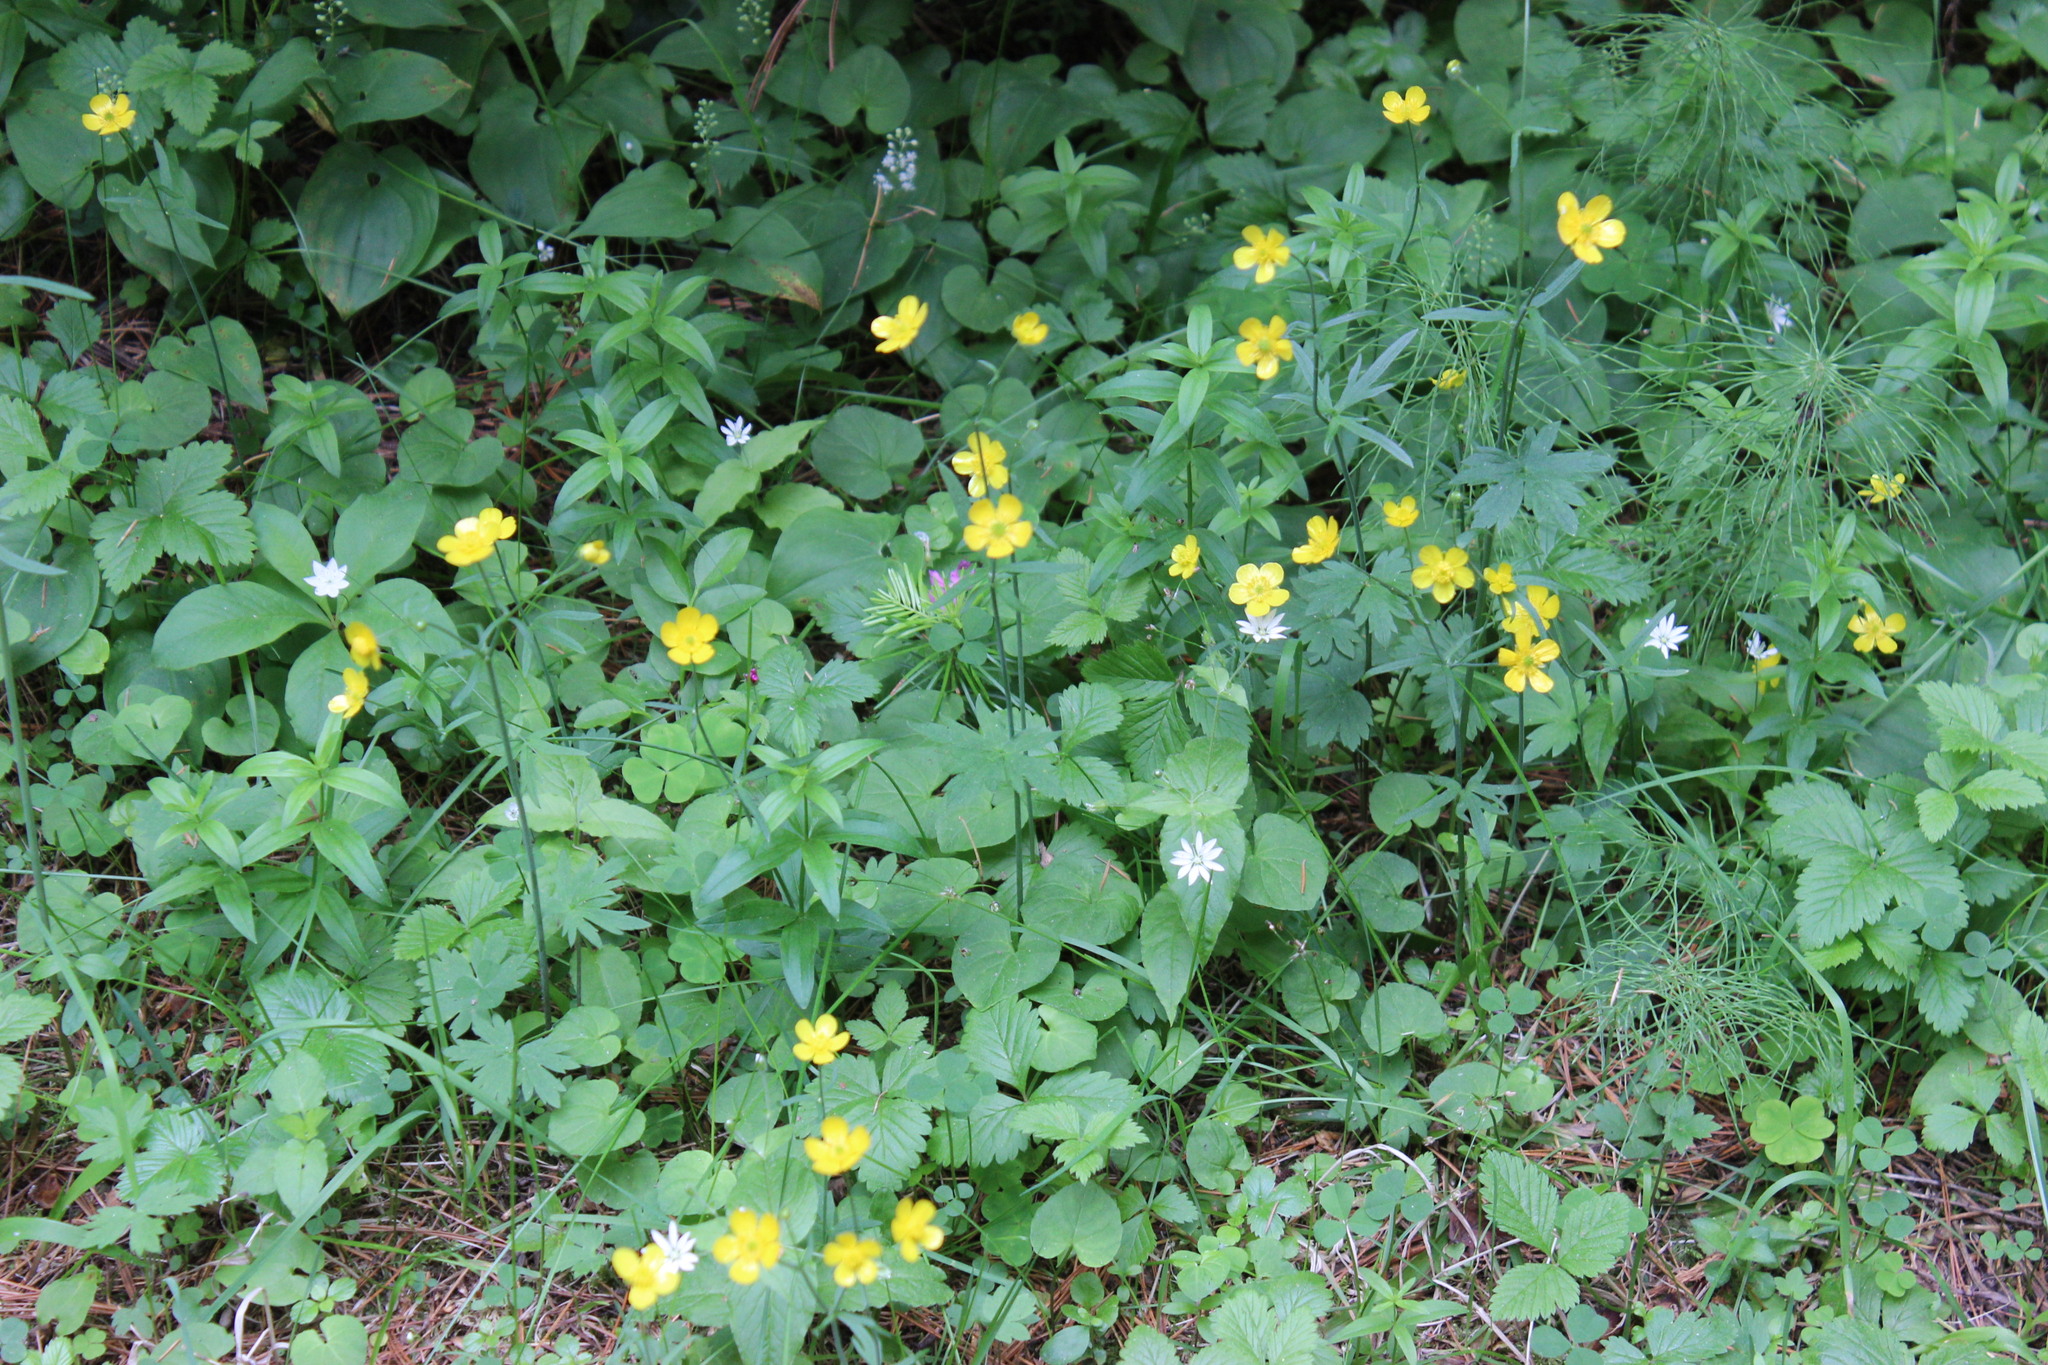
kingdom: Plantae
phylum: Tracheophyta
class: Magnoliopsida
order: Ranunculales
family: Ranunculaceae
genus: Ranunculus
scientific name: Ranunculus propinquus
